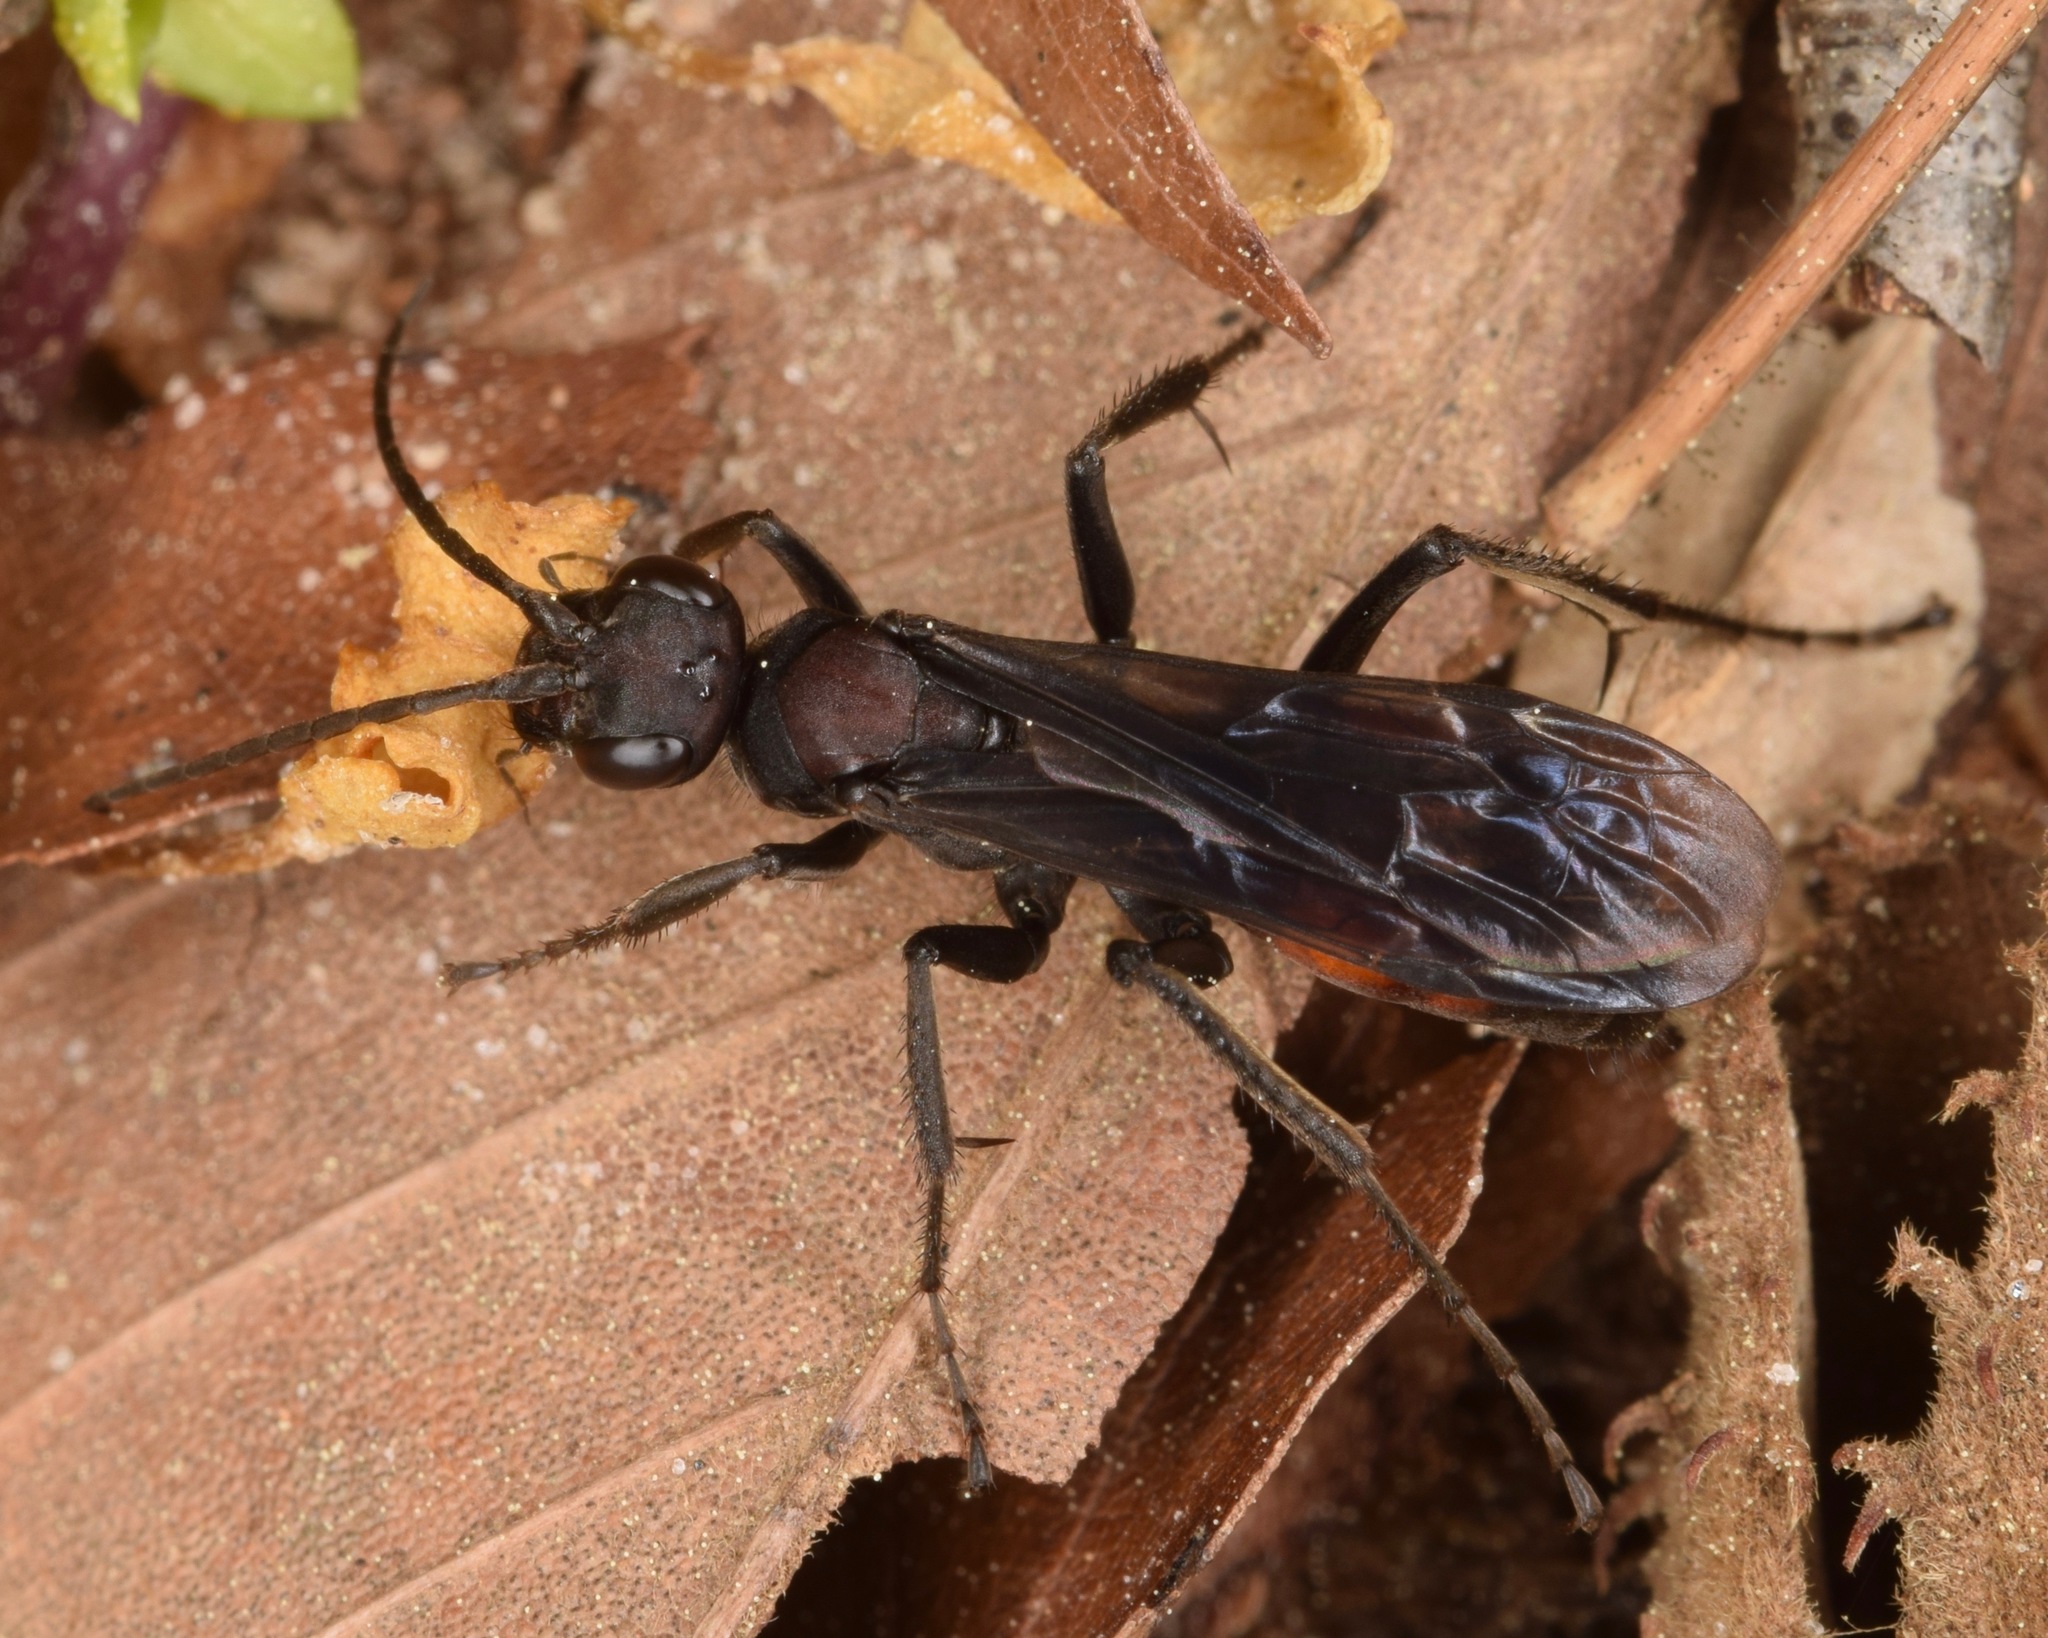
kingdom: Animalia
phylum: Arthropoda
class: Insecta
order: Hymenoptera
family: Pompilidae
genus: Priocnemis
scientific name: Priocnemis nigripes
